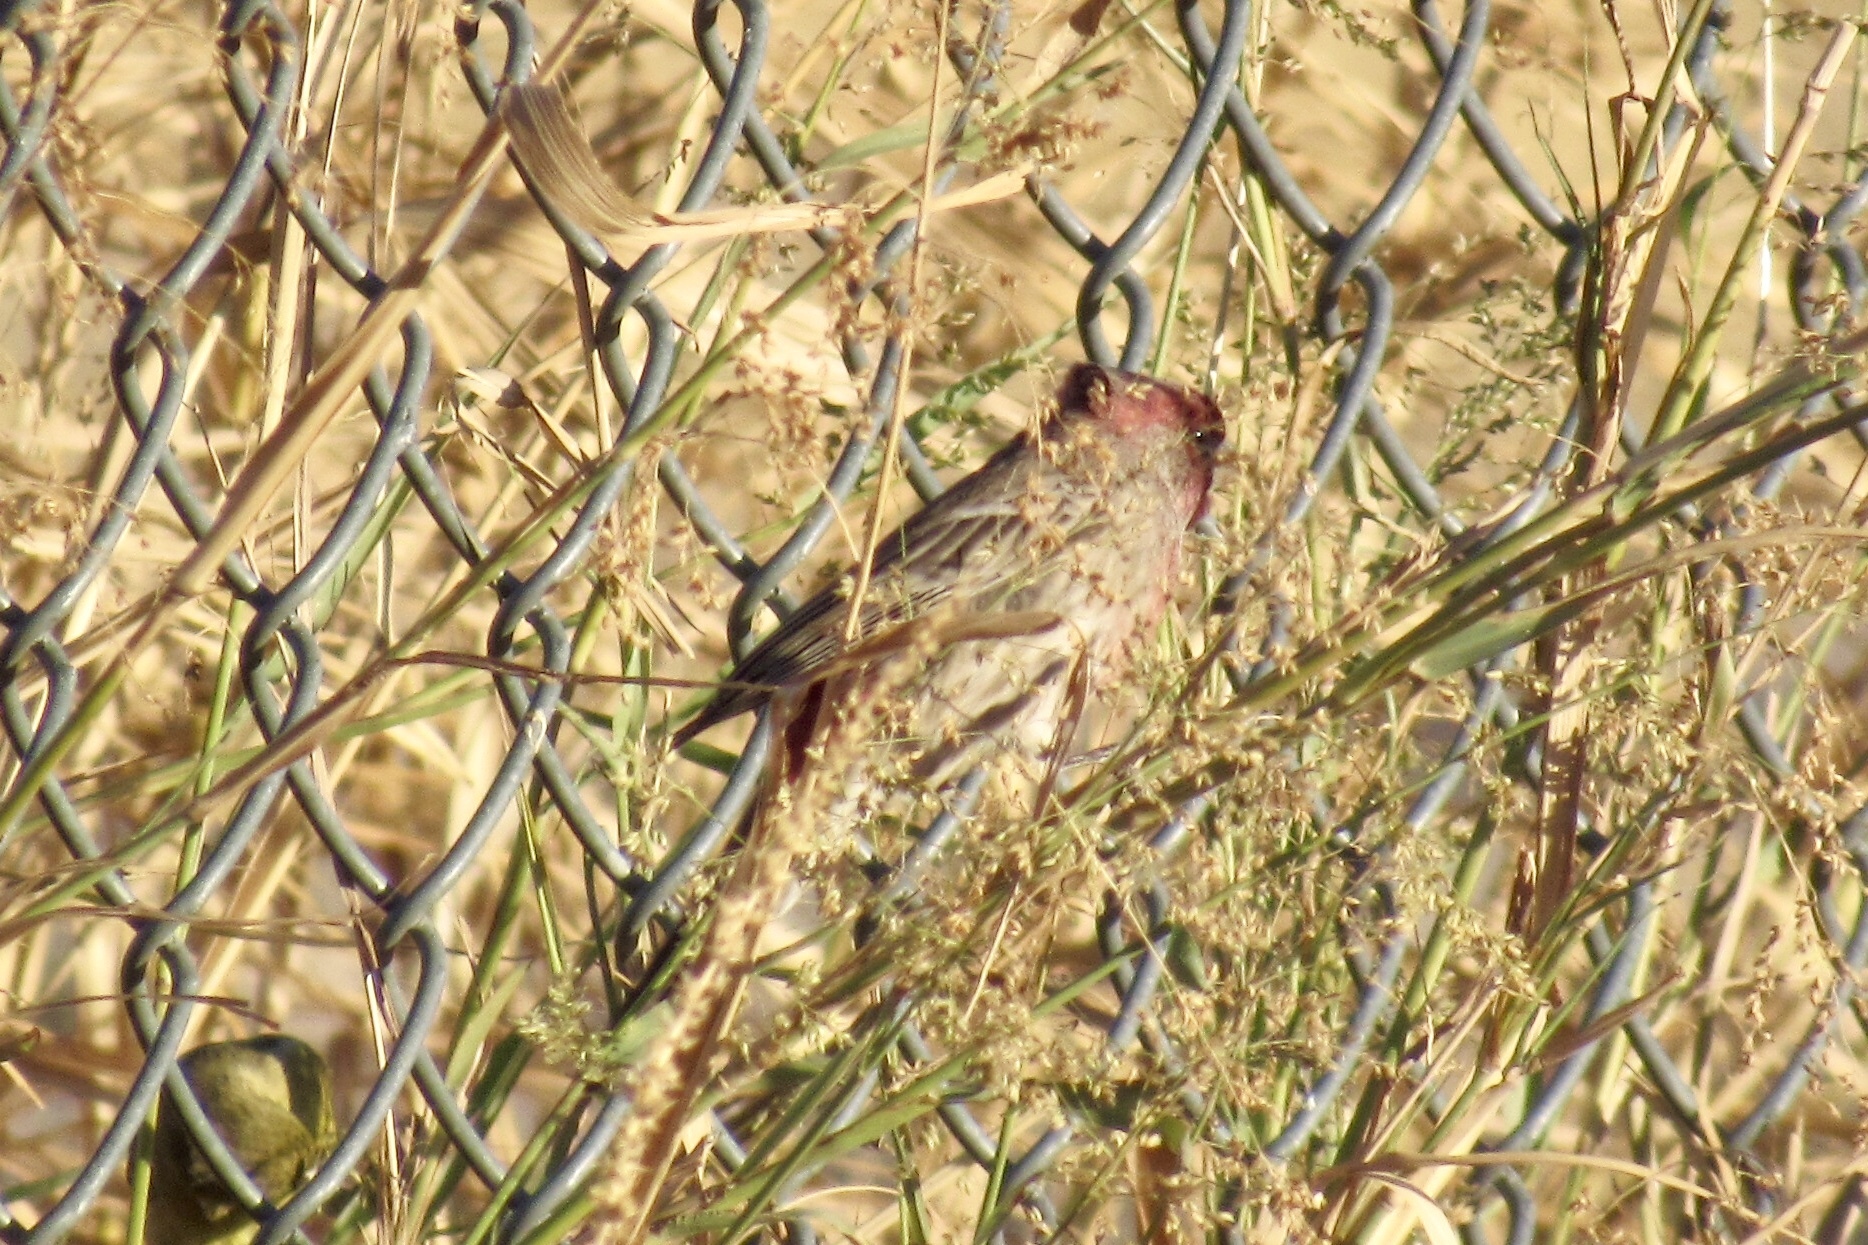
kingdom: Animalia
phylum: Chordata
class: Aves
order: Passeriformes
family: Fringillidae
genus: Haemorhous
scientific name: Haemorhous mexicanus
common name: House finch
